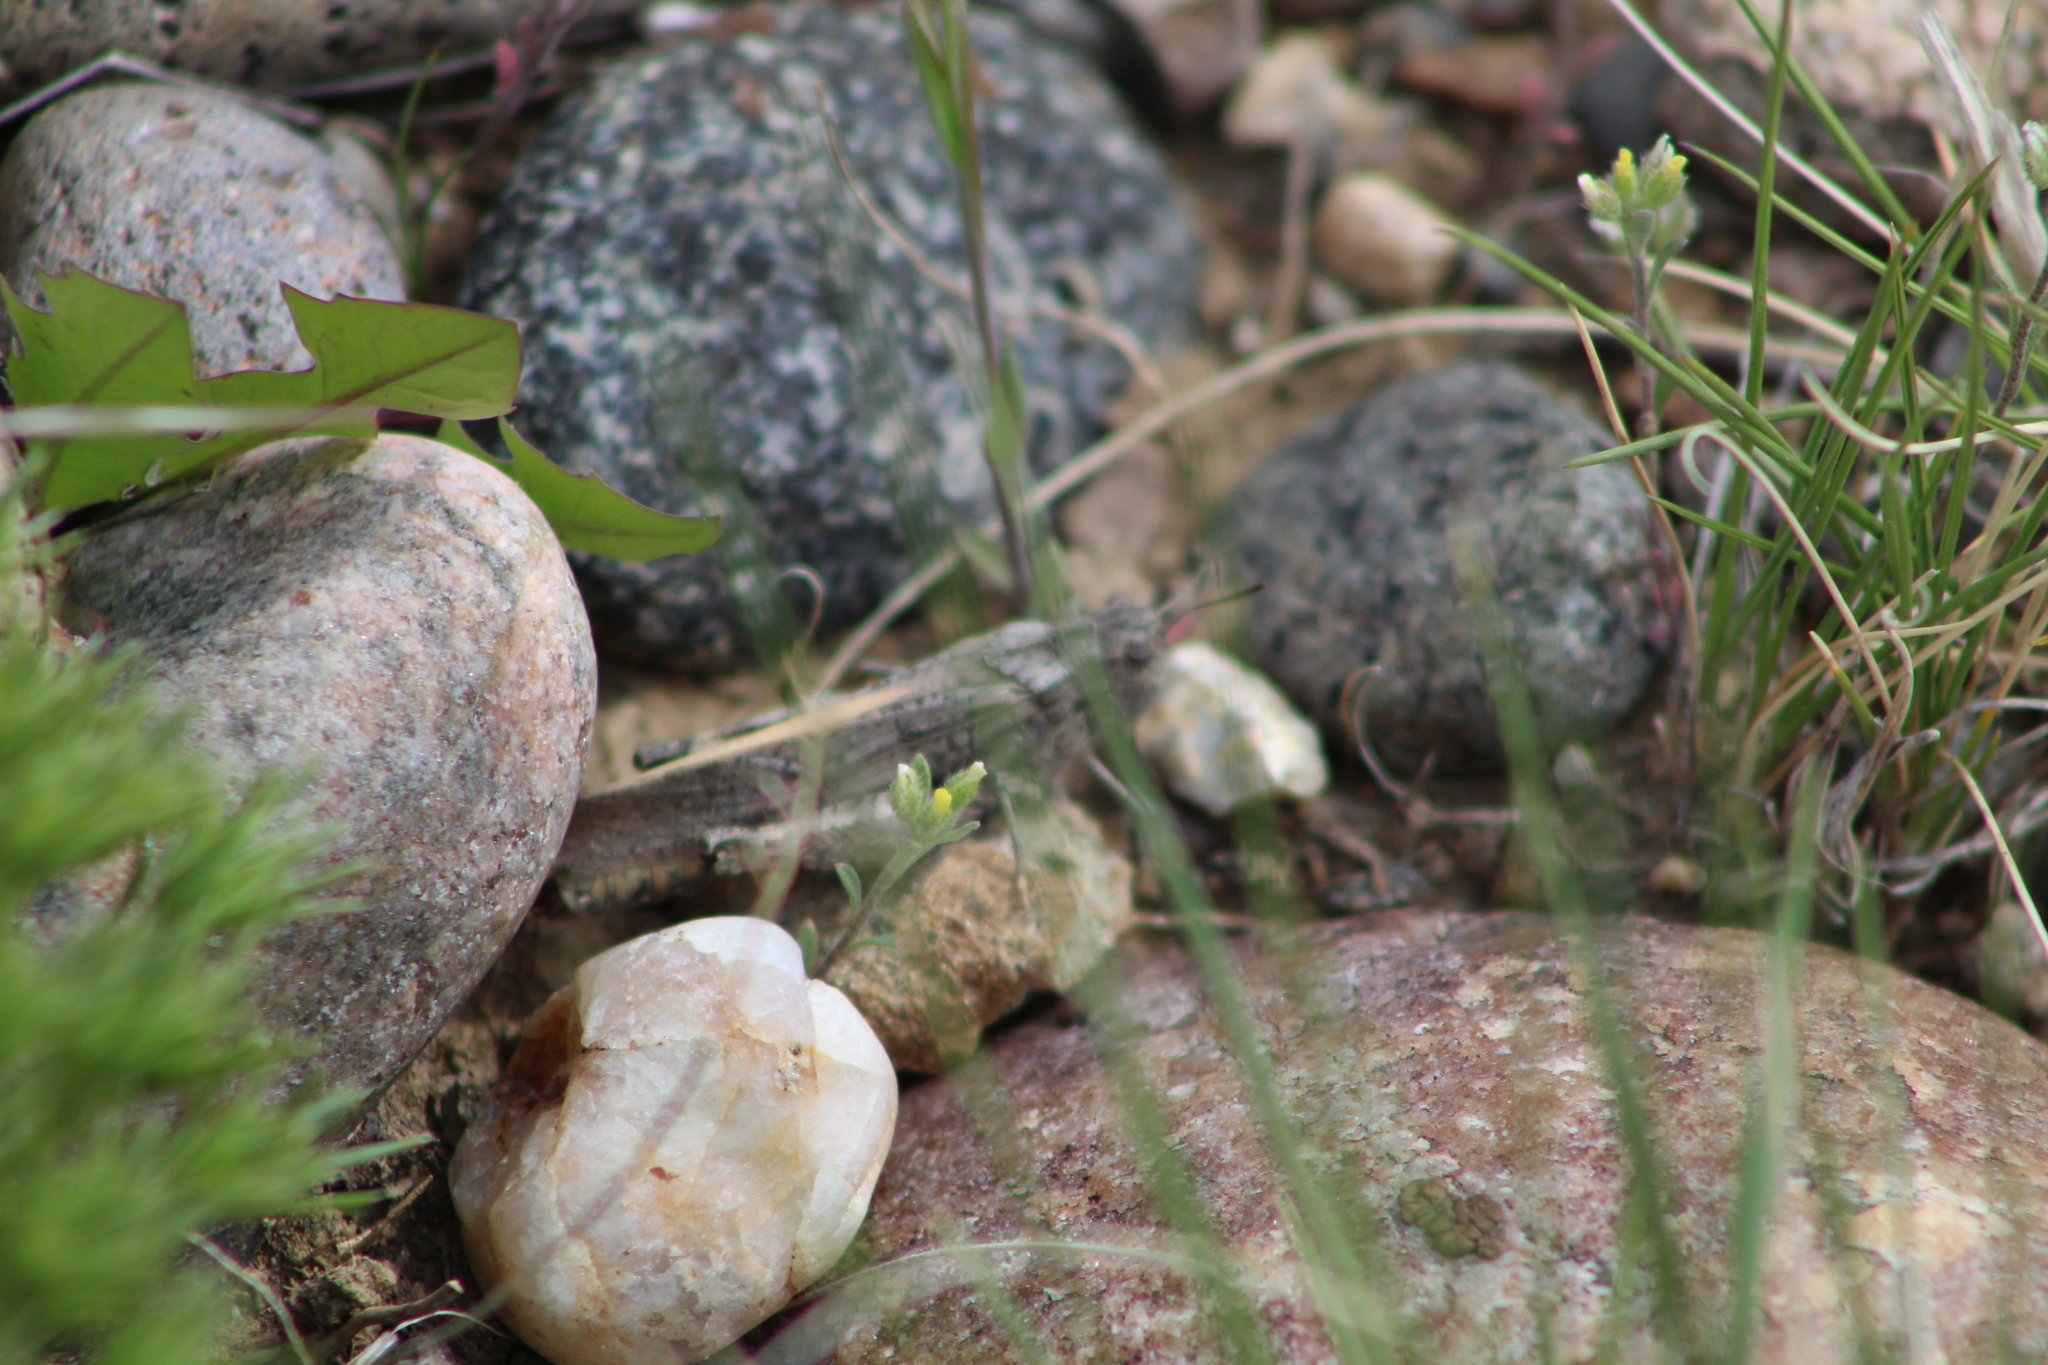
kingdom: Animalia
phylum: Arthropoda
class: Insecta
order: Orthoptera
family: Acrididae
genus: Arphia
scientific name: Arphia conspersa
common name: Speckle-winged rangeland grasshopper
